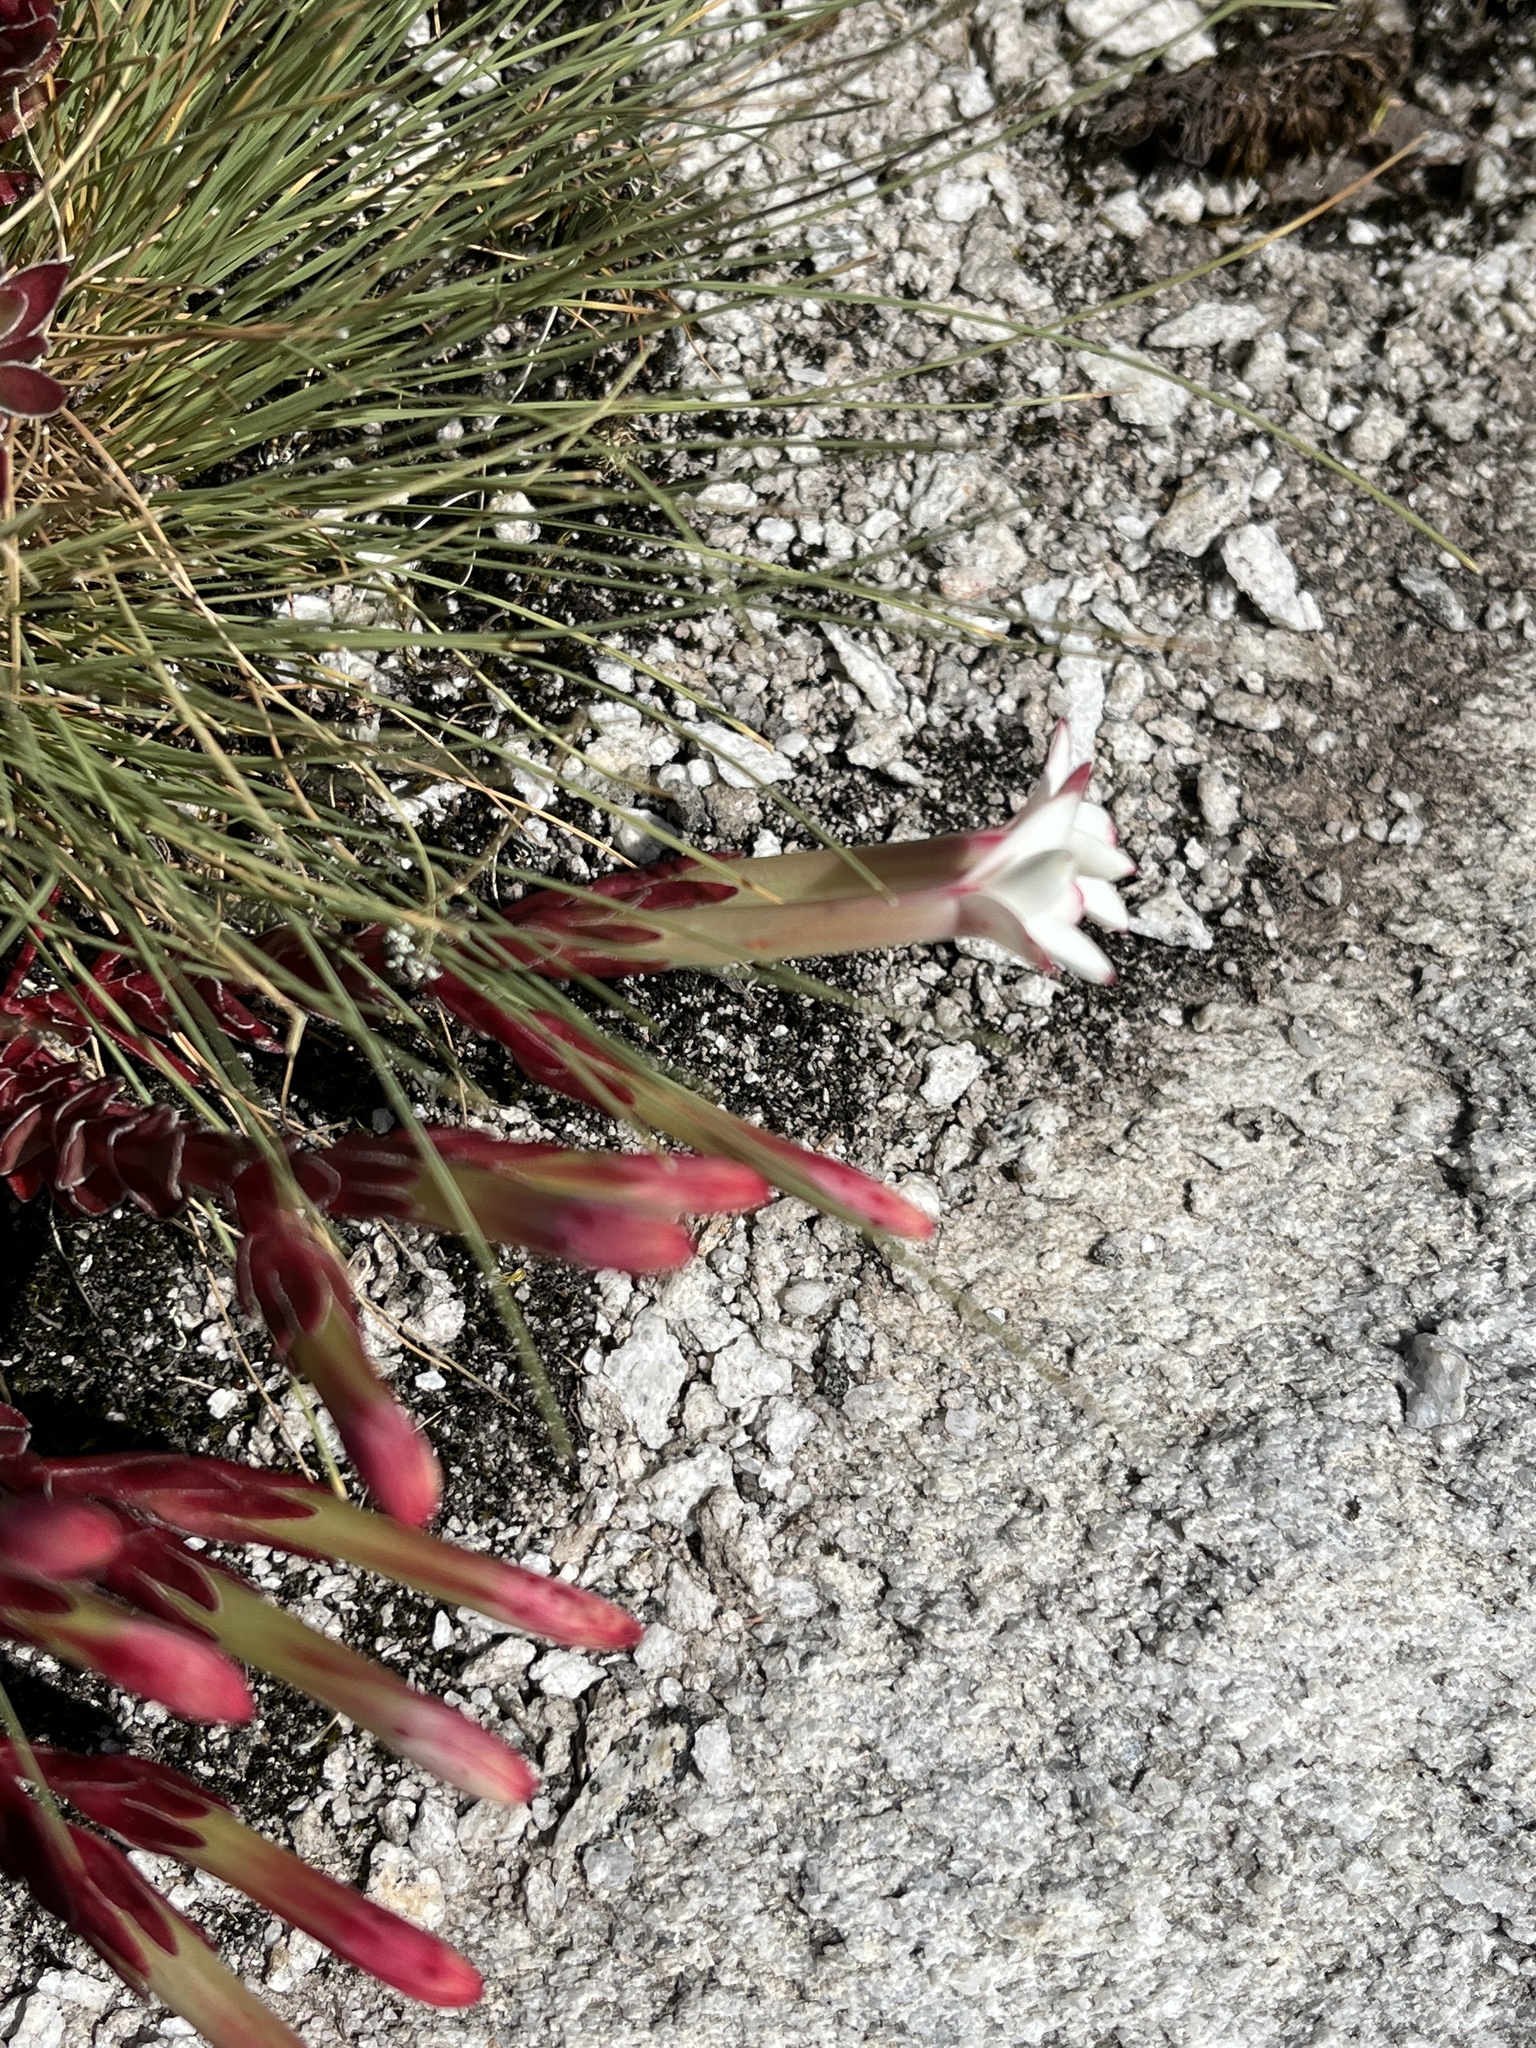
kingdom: Plantae
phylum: Tracheophyta
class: Magnoliopsida
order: Saxifragales
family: Crassulaceae
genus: Crassula
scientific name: Crassula obtusa
